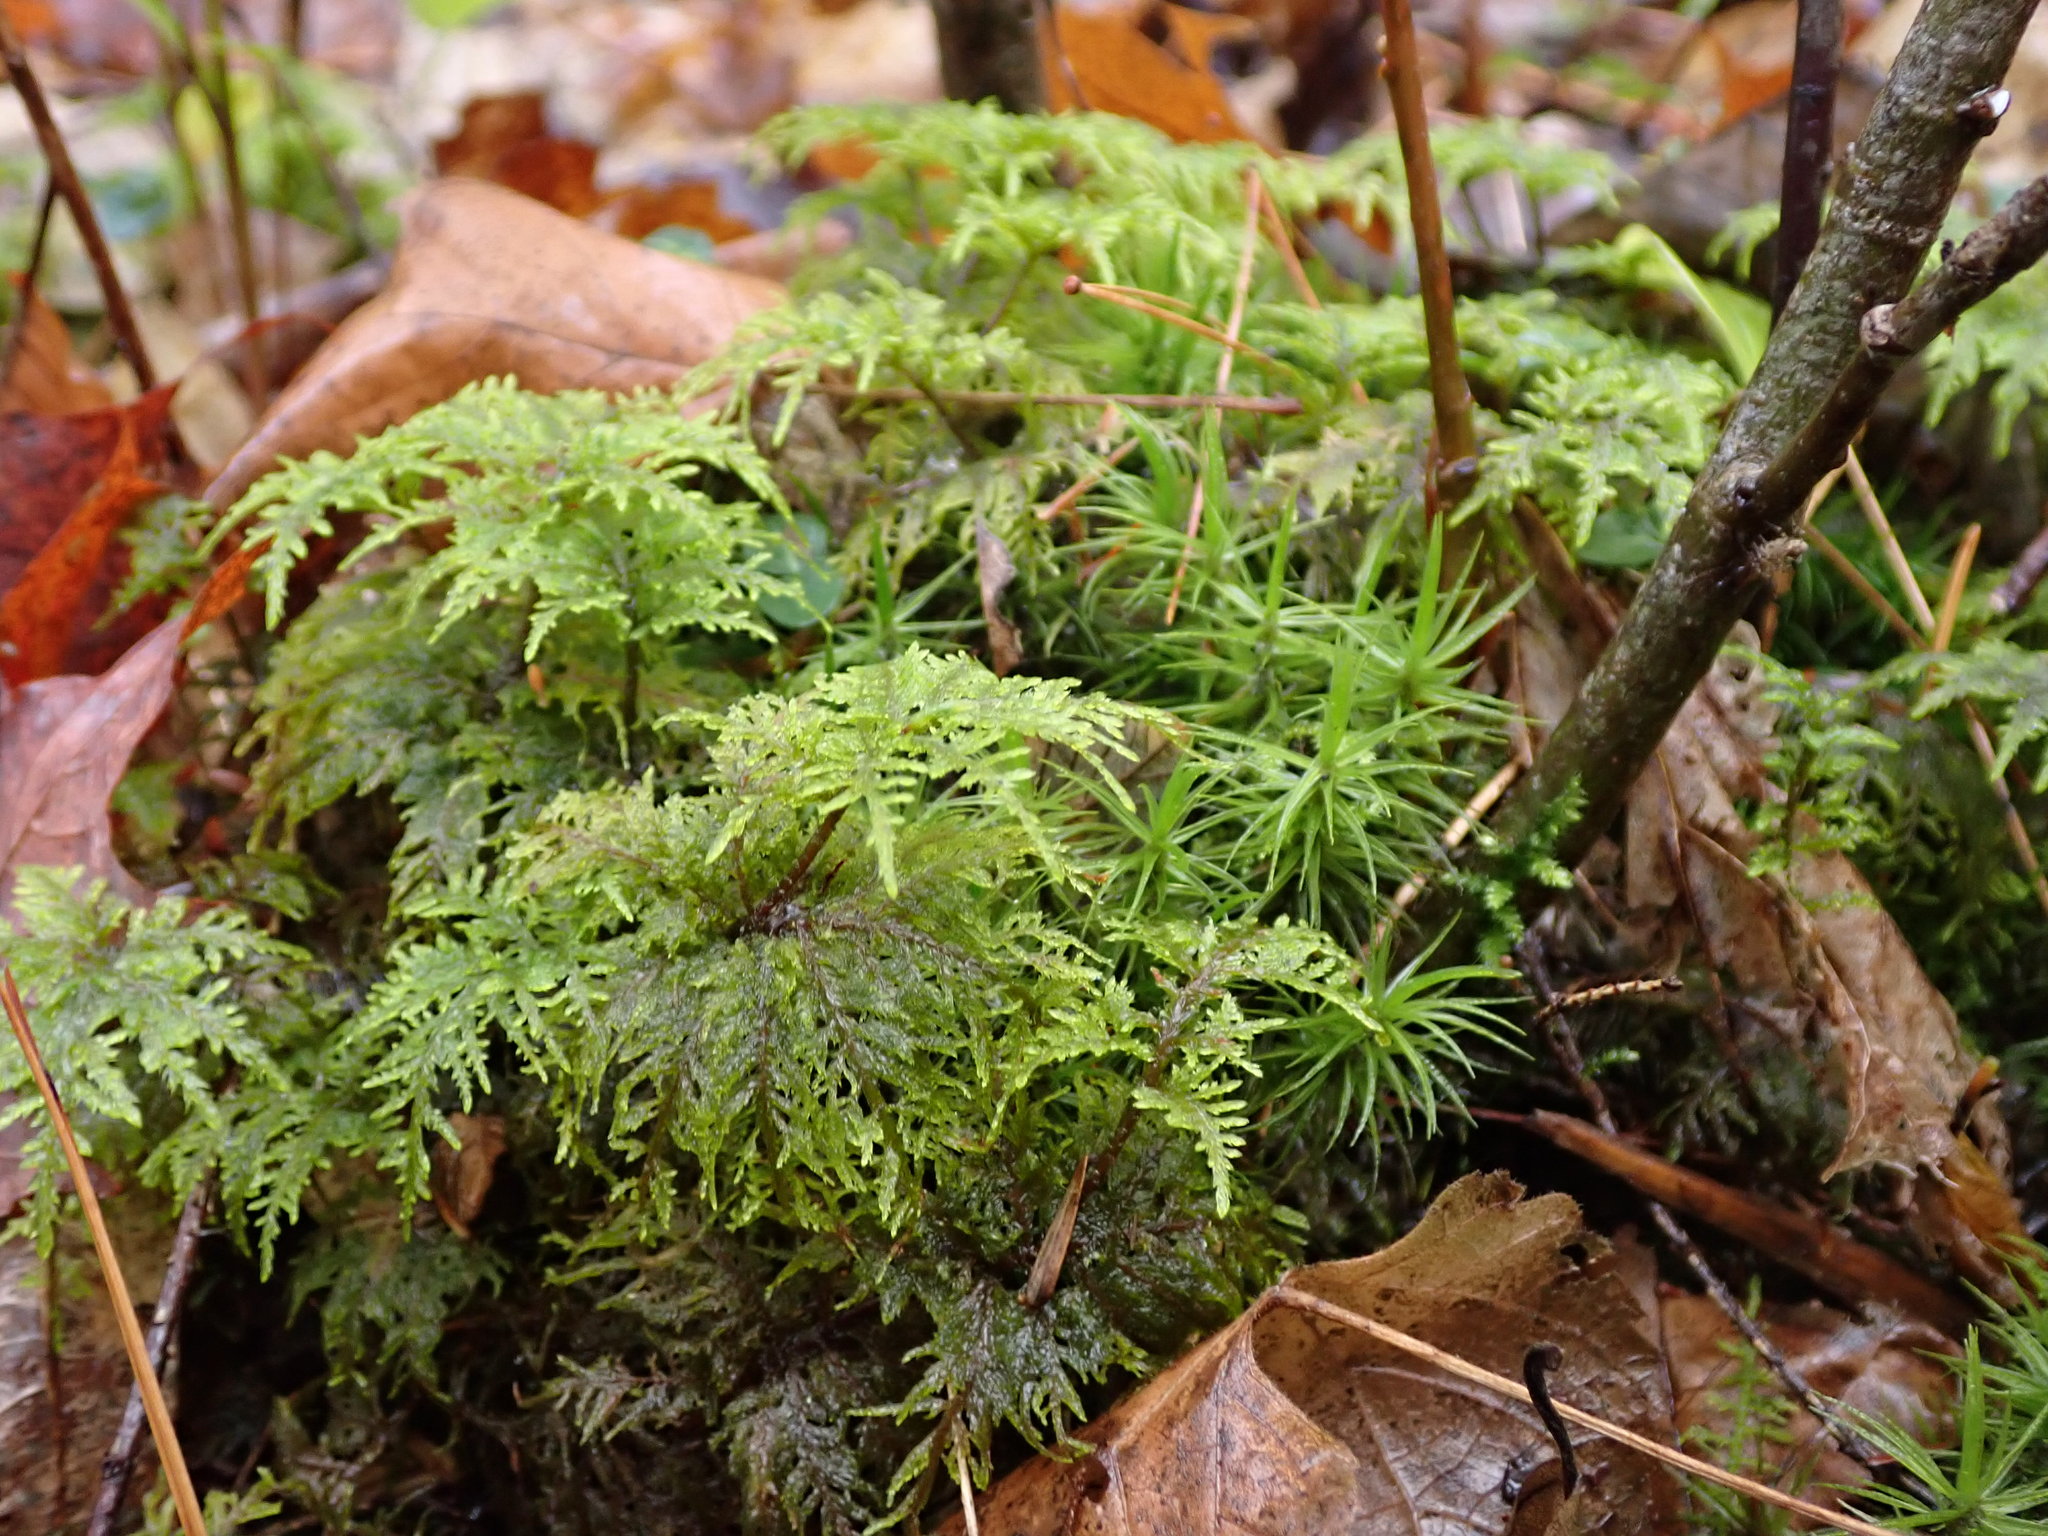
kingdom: Plantae
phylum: Bryophyta
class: Bryopsida
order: Hypnales
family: Hylocomiaceae
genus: Hylocomium
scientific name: Hylocomium splendens
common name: Stairstep moss
